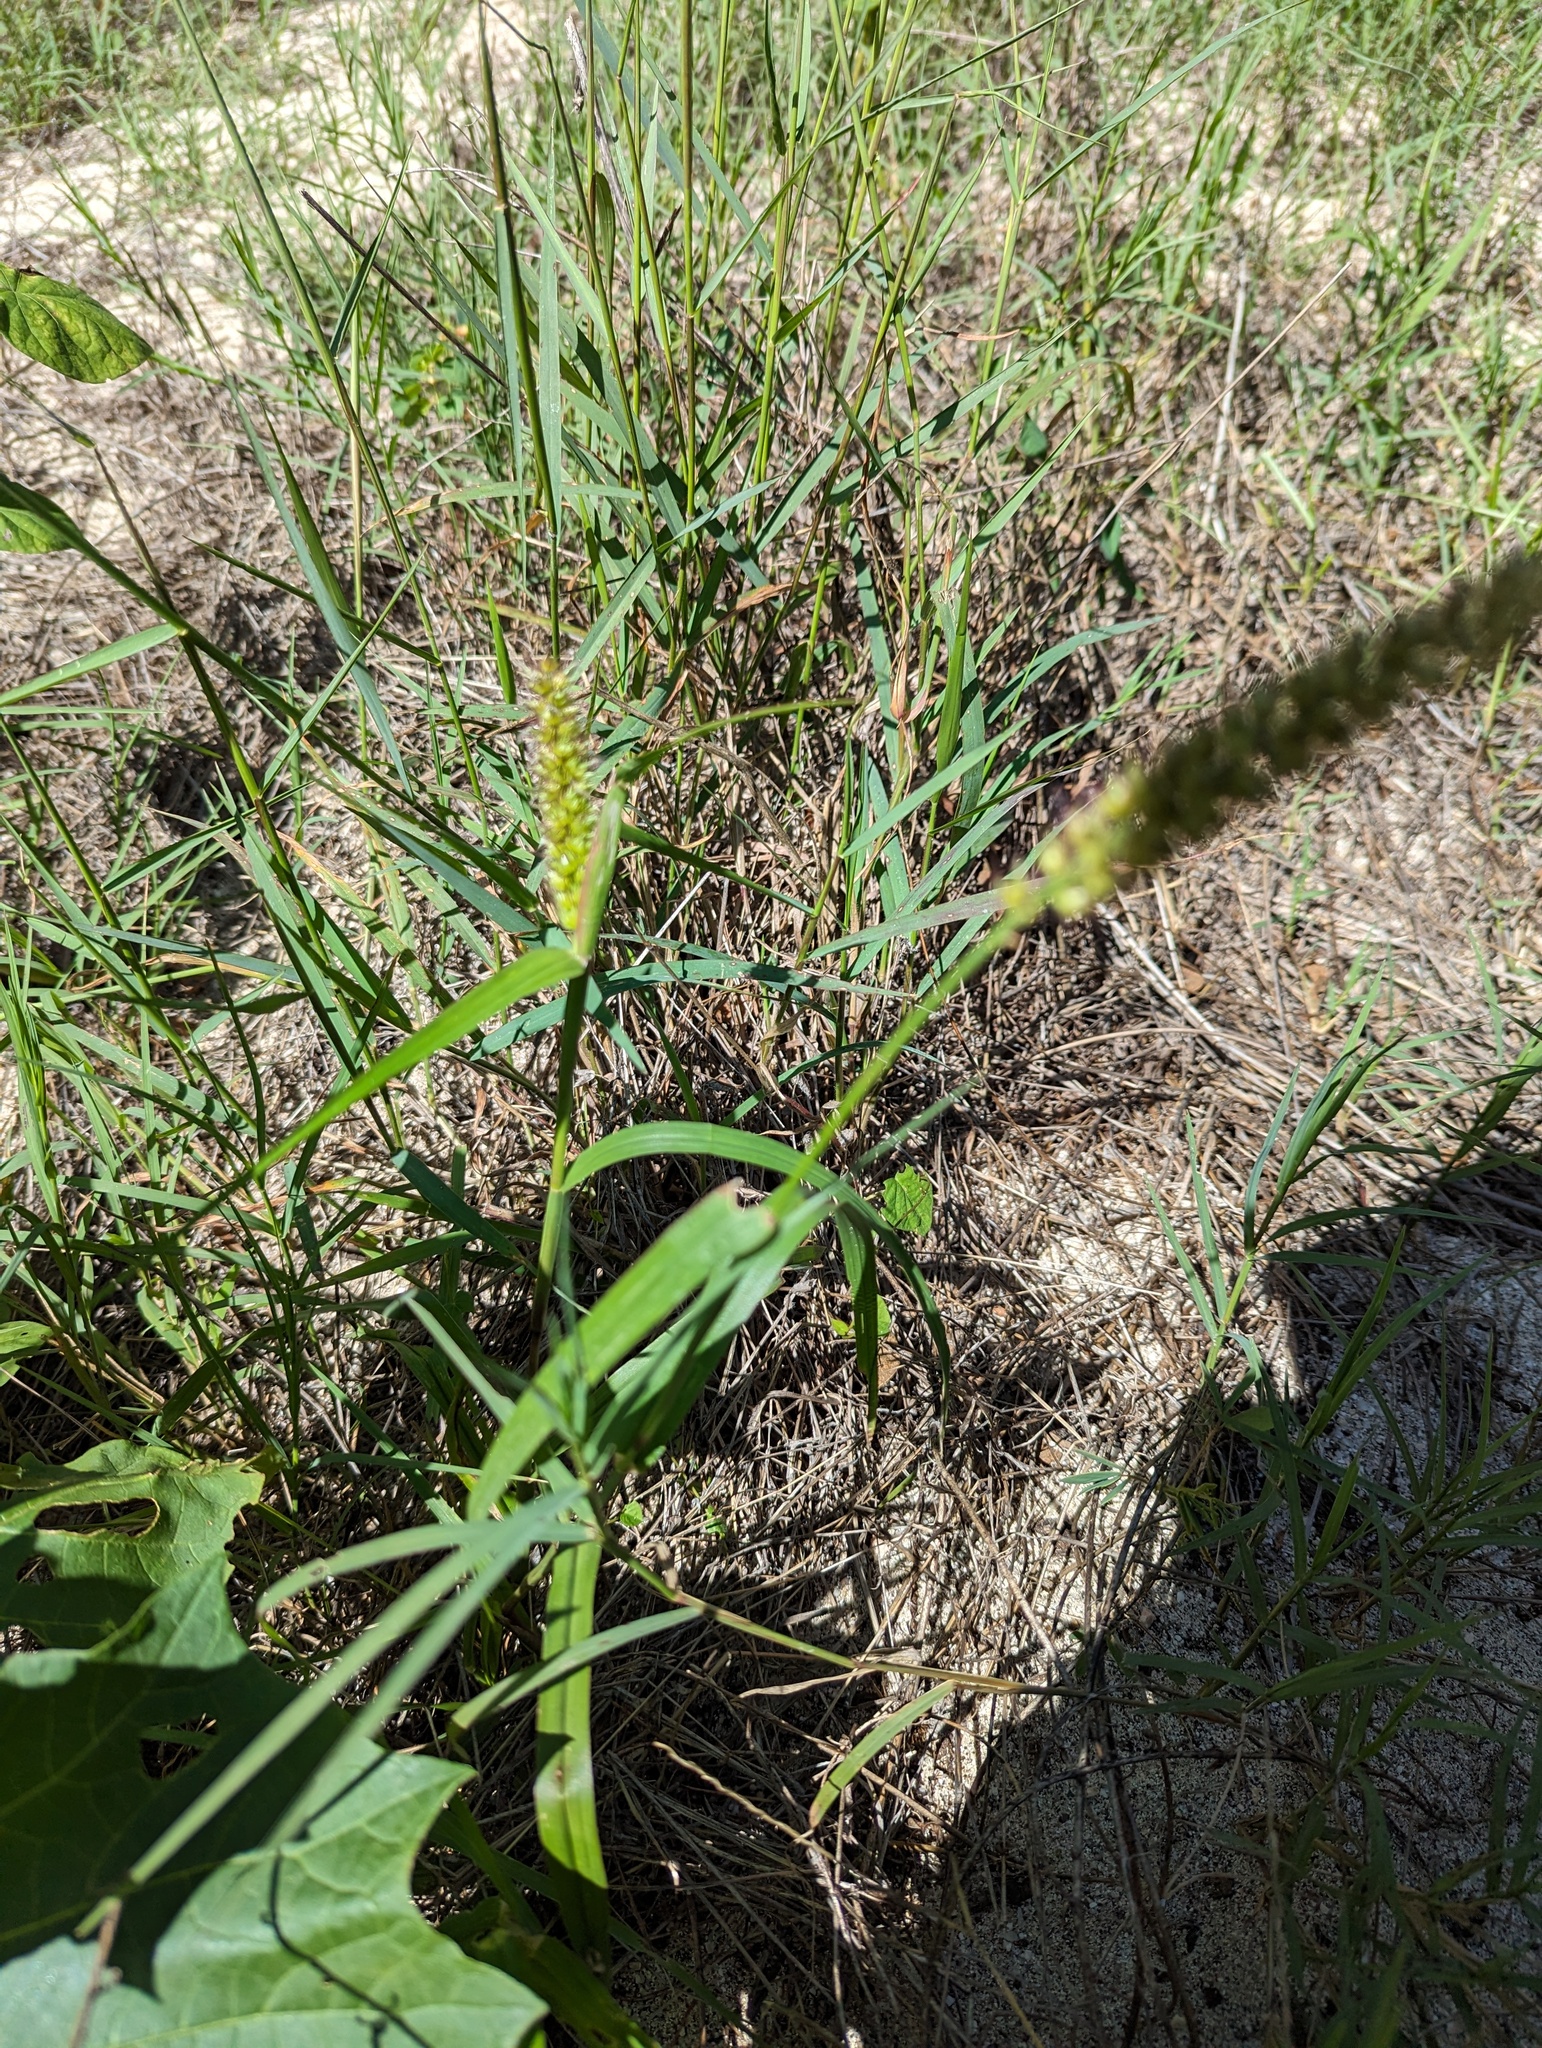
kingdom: Plantae
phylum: Tracheophyta
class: Liliopsida
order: Poales
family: Poaceae
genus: Cenchrus
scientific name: Cenchrus echinatus
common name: Southern sandbur
